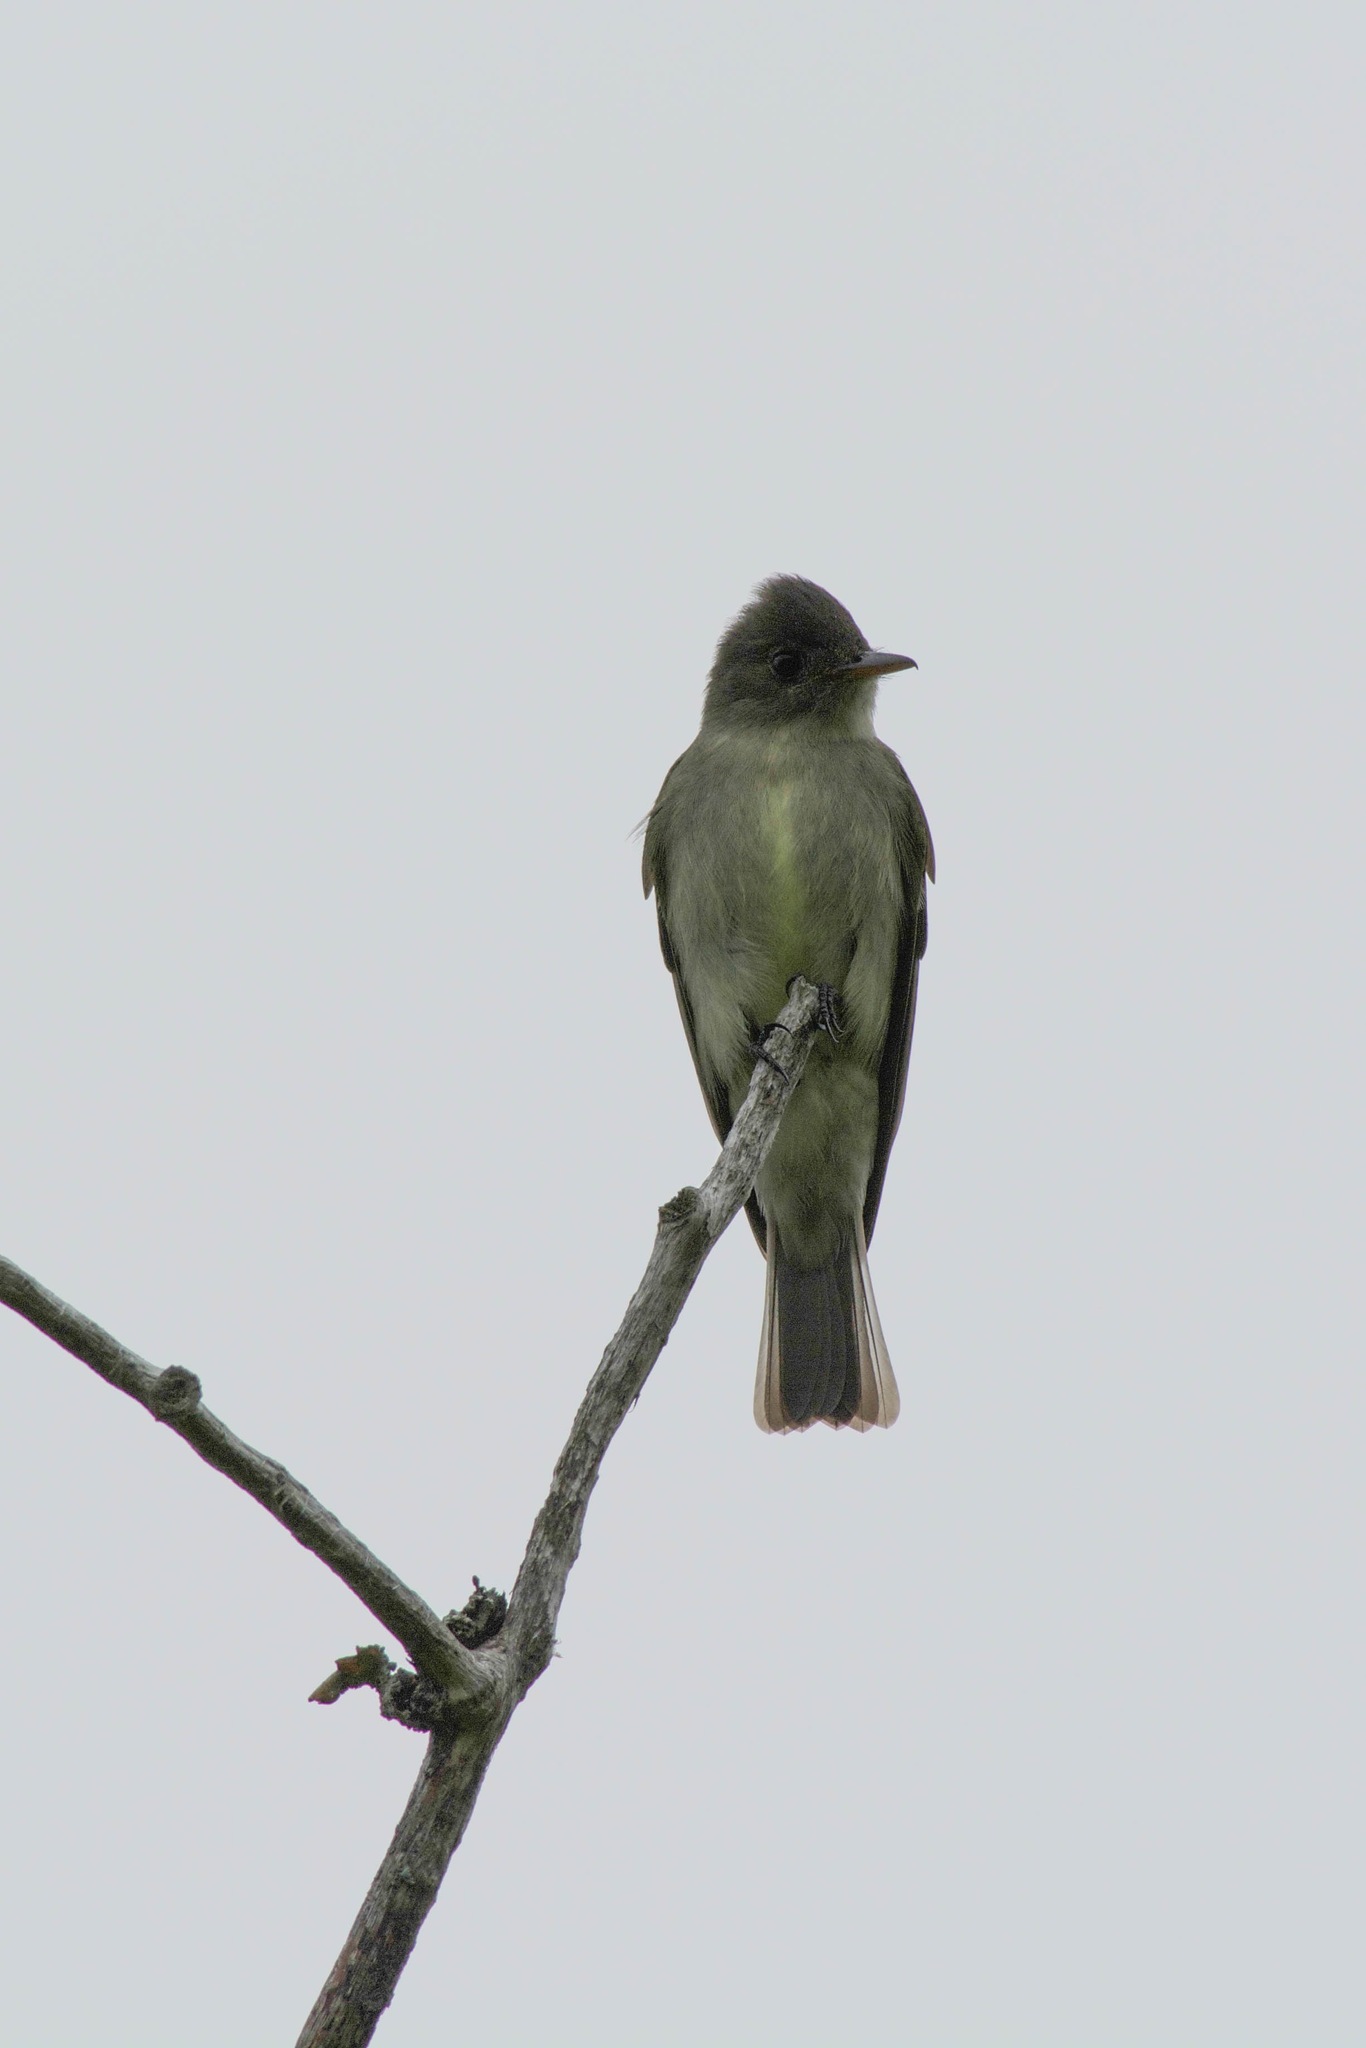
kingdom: Animalia
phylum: Chordata
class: Aves
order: Passeriformes
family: Tyrannidae
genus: Contopus
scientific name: Contopus virens
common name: Eastern wood-pewee
